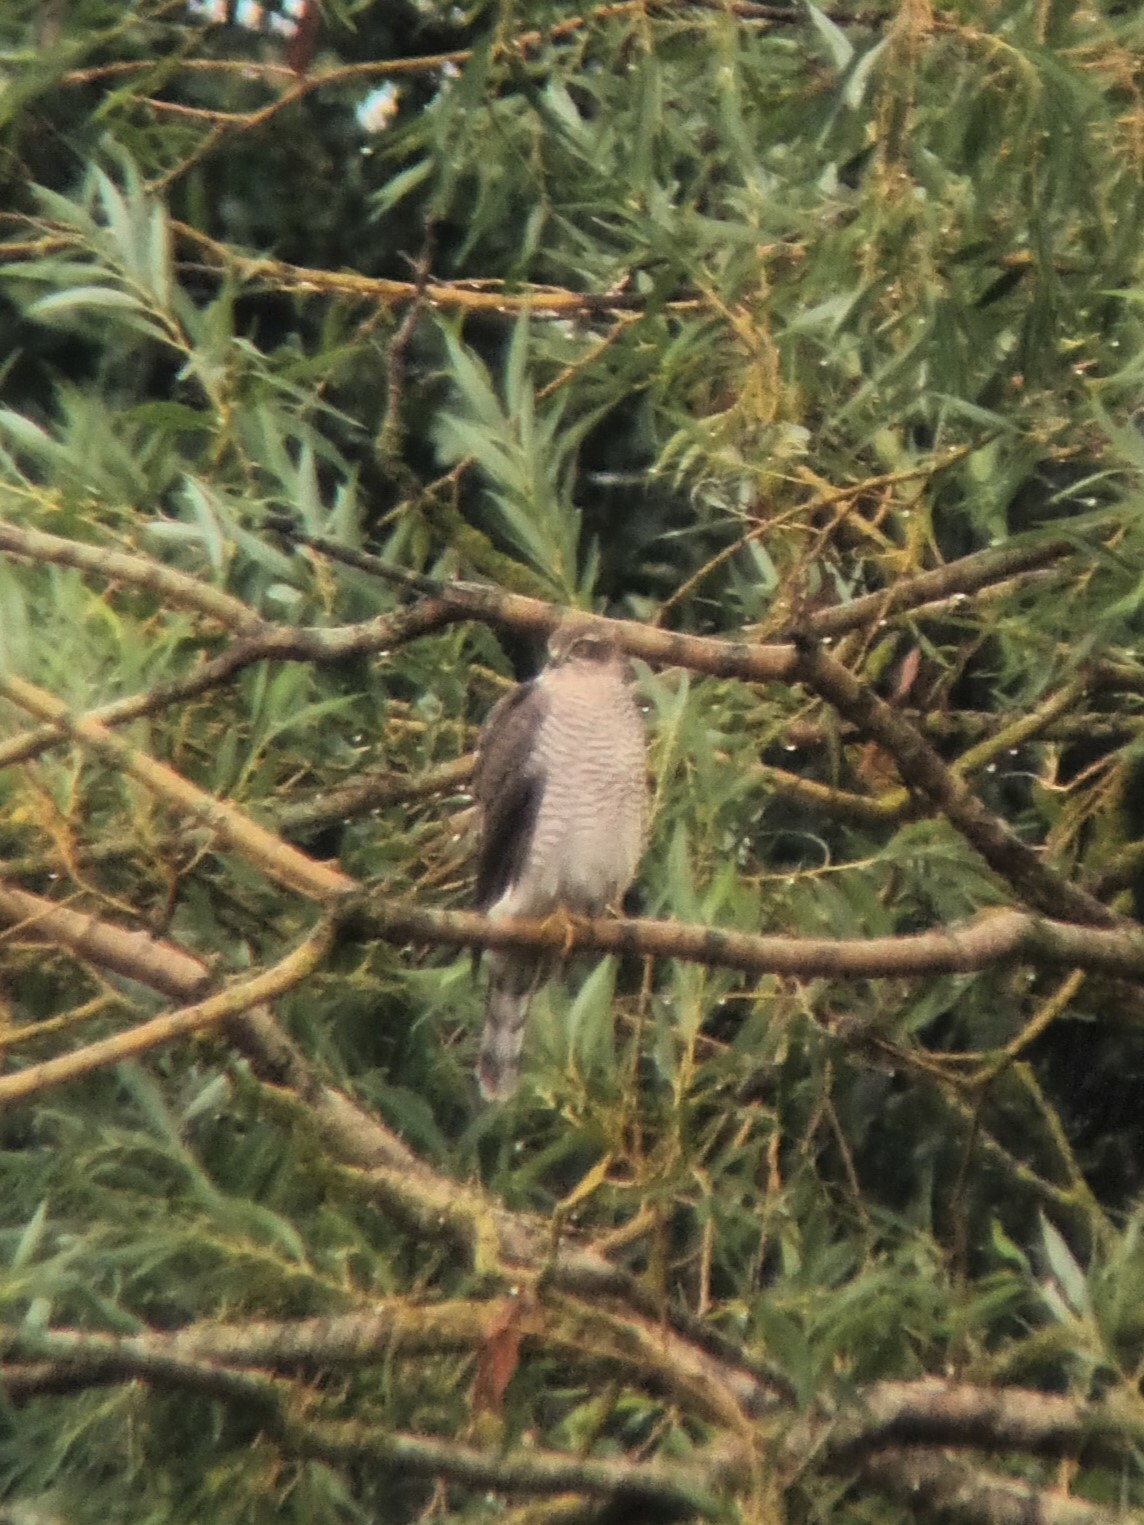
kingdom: Animalia
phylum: Chordata
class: Aves
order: Accipitriformes
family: Accipitridae
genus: Accipiter
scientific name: Accipiter nisus
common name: Eurasian sparrowhawk
